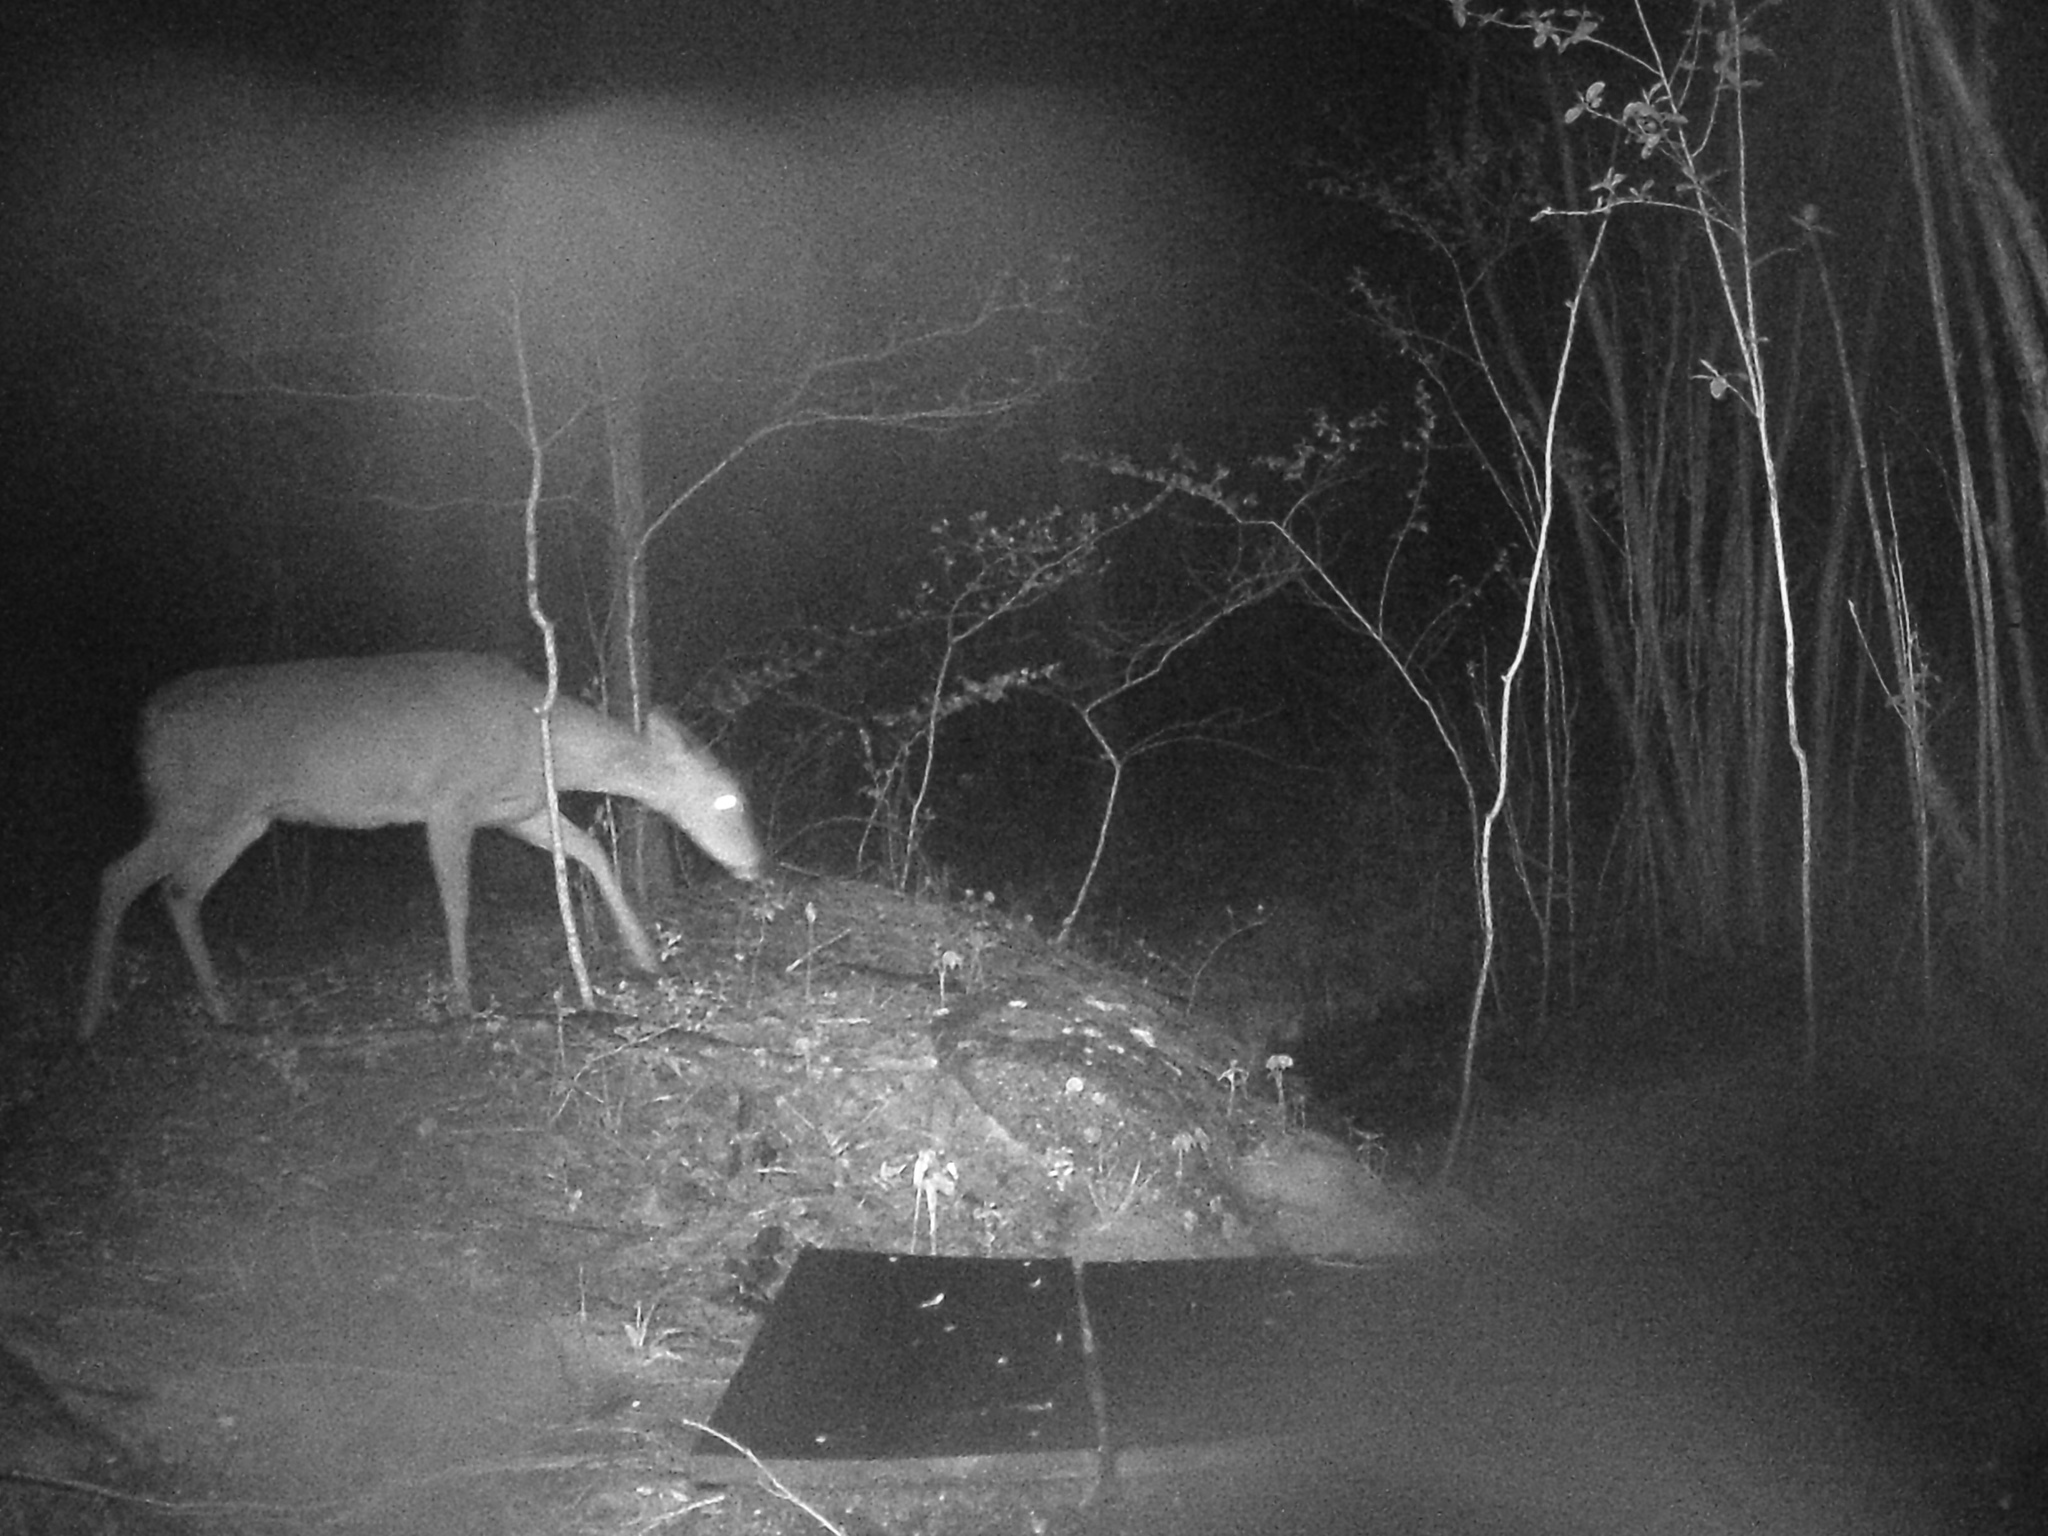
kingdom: Animalia
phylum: Chordata
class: Mammalia
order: Artiodactyla
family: Cervidae
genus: Odocoileus
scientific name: Odocoileus virginianus
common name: White-tailed deer
